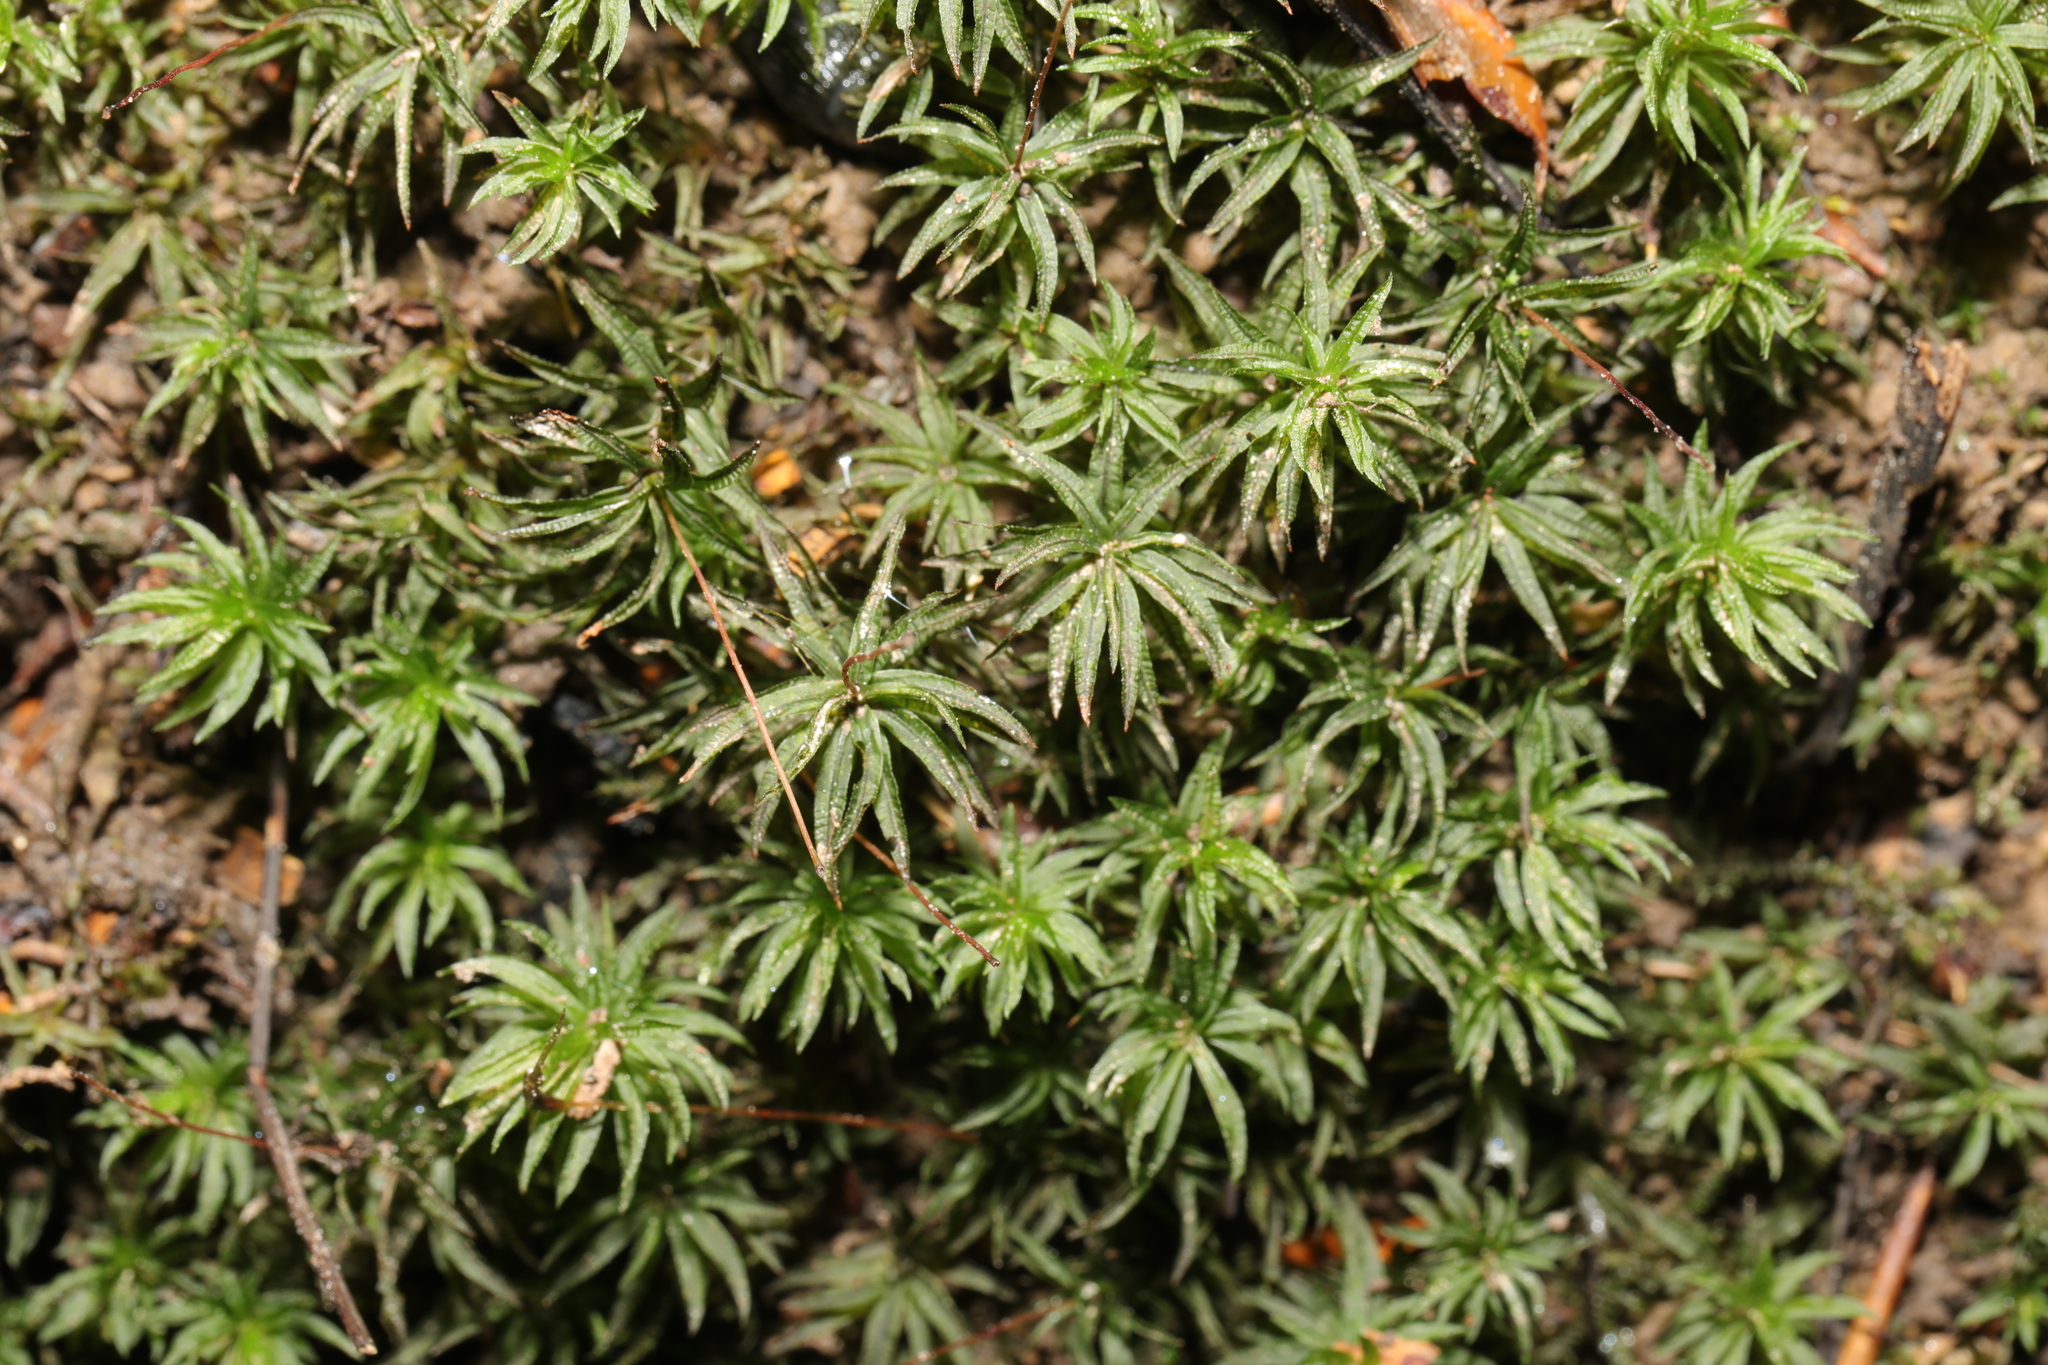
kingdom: Plantae
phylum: Bryophyta
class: Polytrichopsida
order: Polytrichales
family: Polytrichaceae
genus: Atrichum
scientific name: Atrichum undulatum
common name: Common smoothcap
